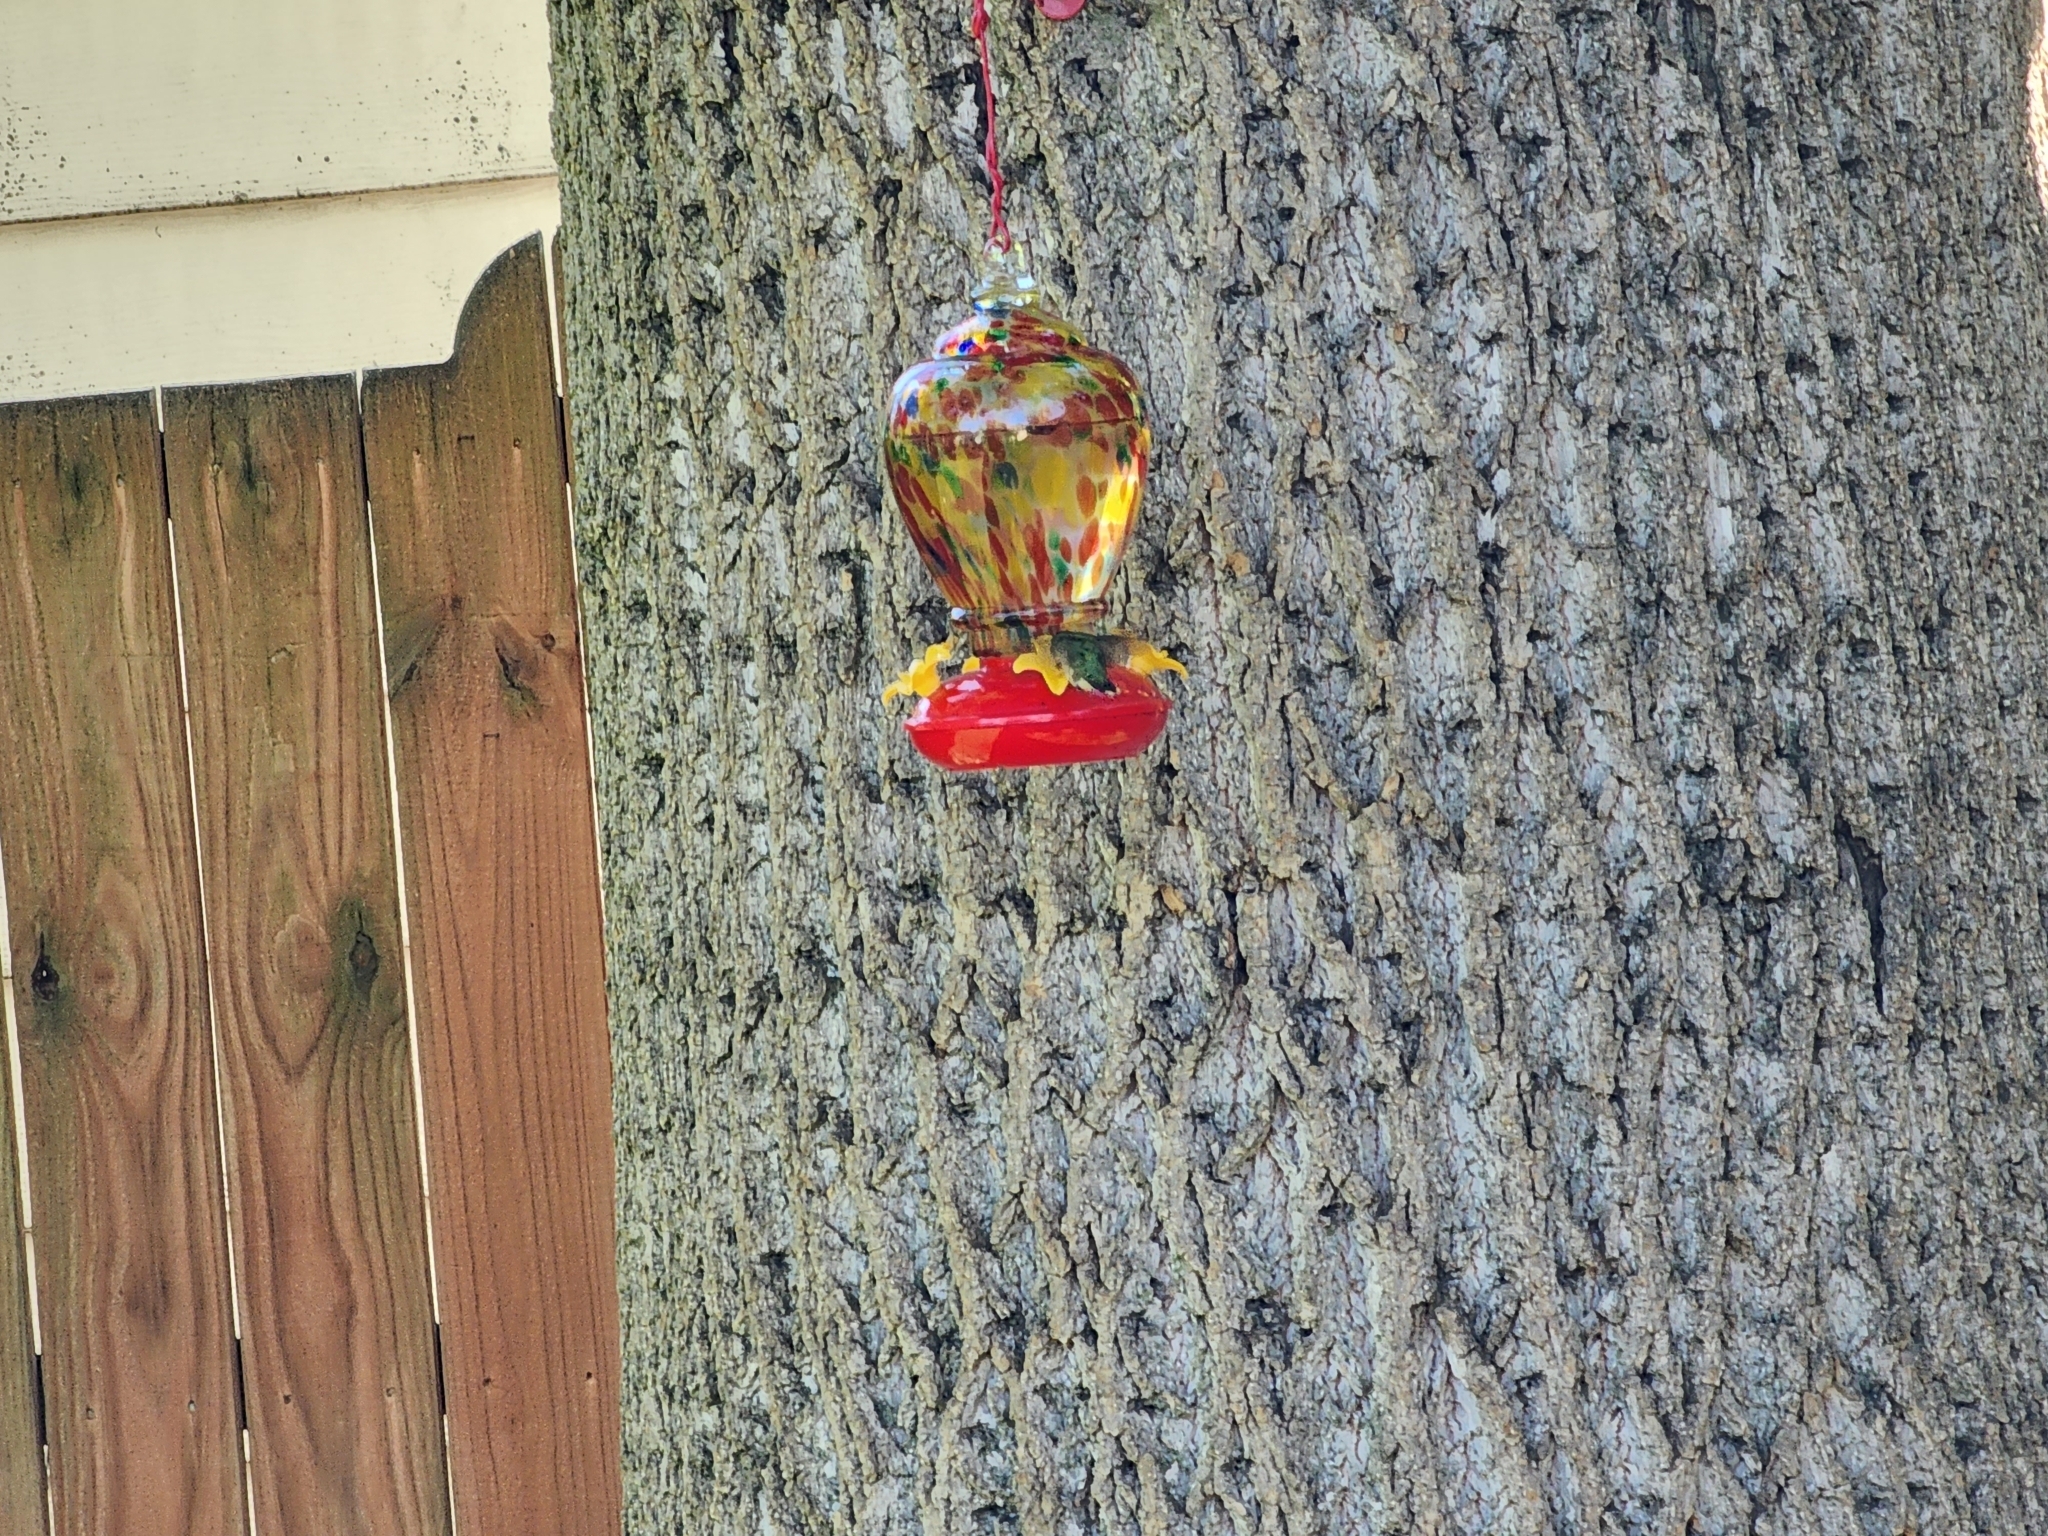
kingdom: Animalia
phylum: Chordata
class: Aves
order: Apodiformes
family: Trochilidae
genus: Archilochus
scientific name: Archilochus colubris
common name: Ruby-throated hummingbird
